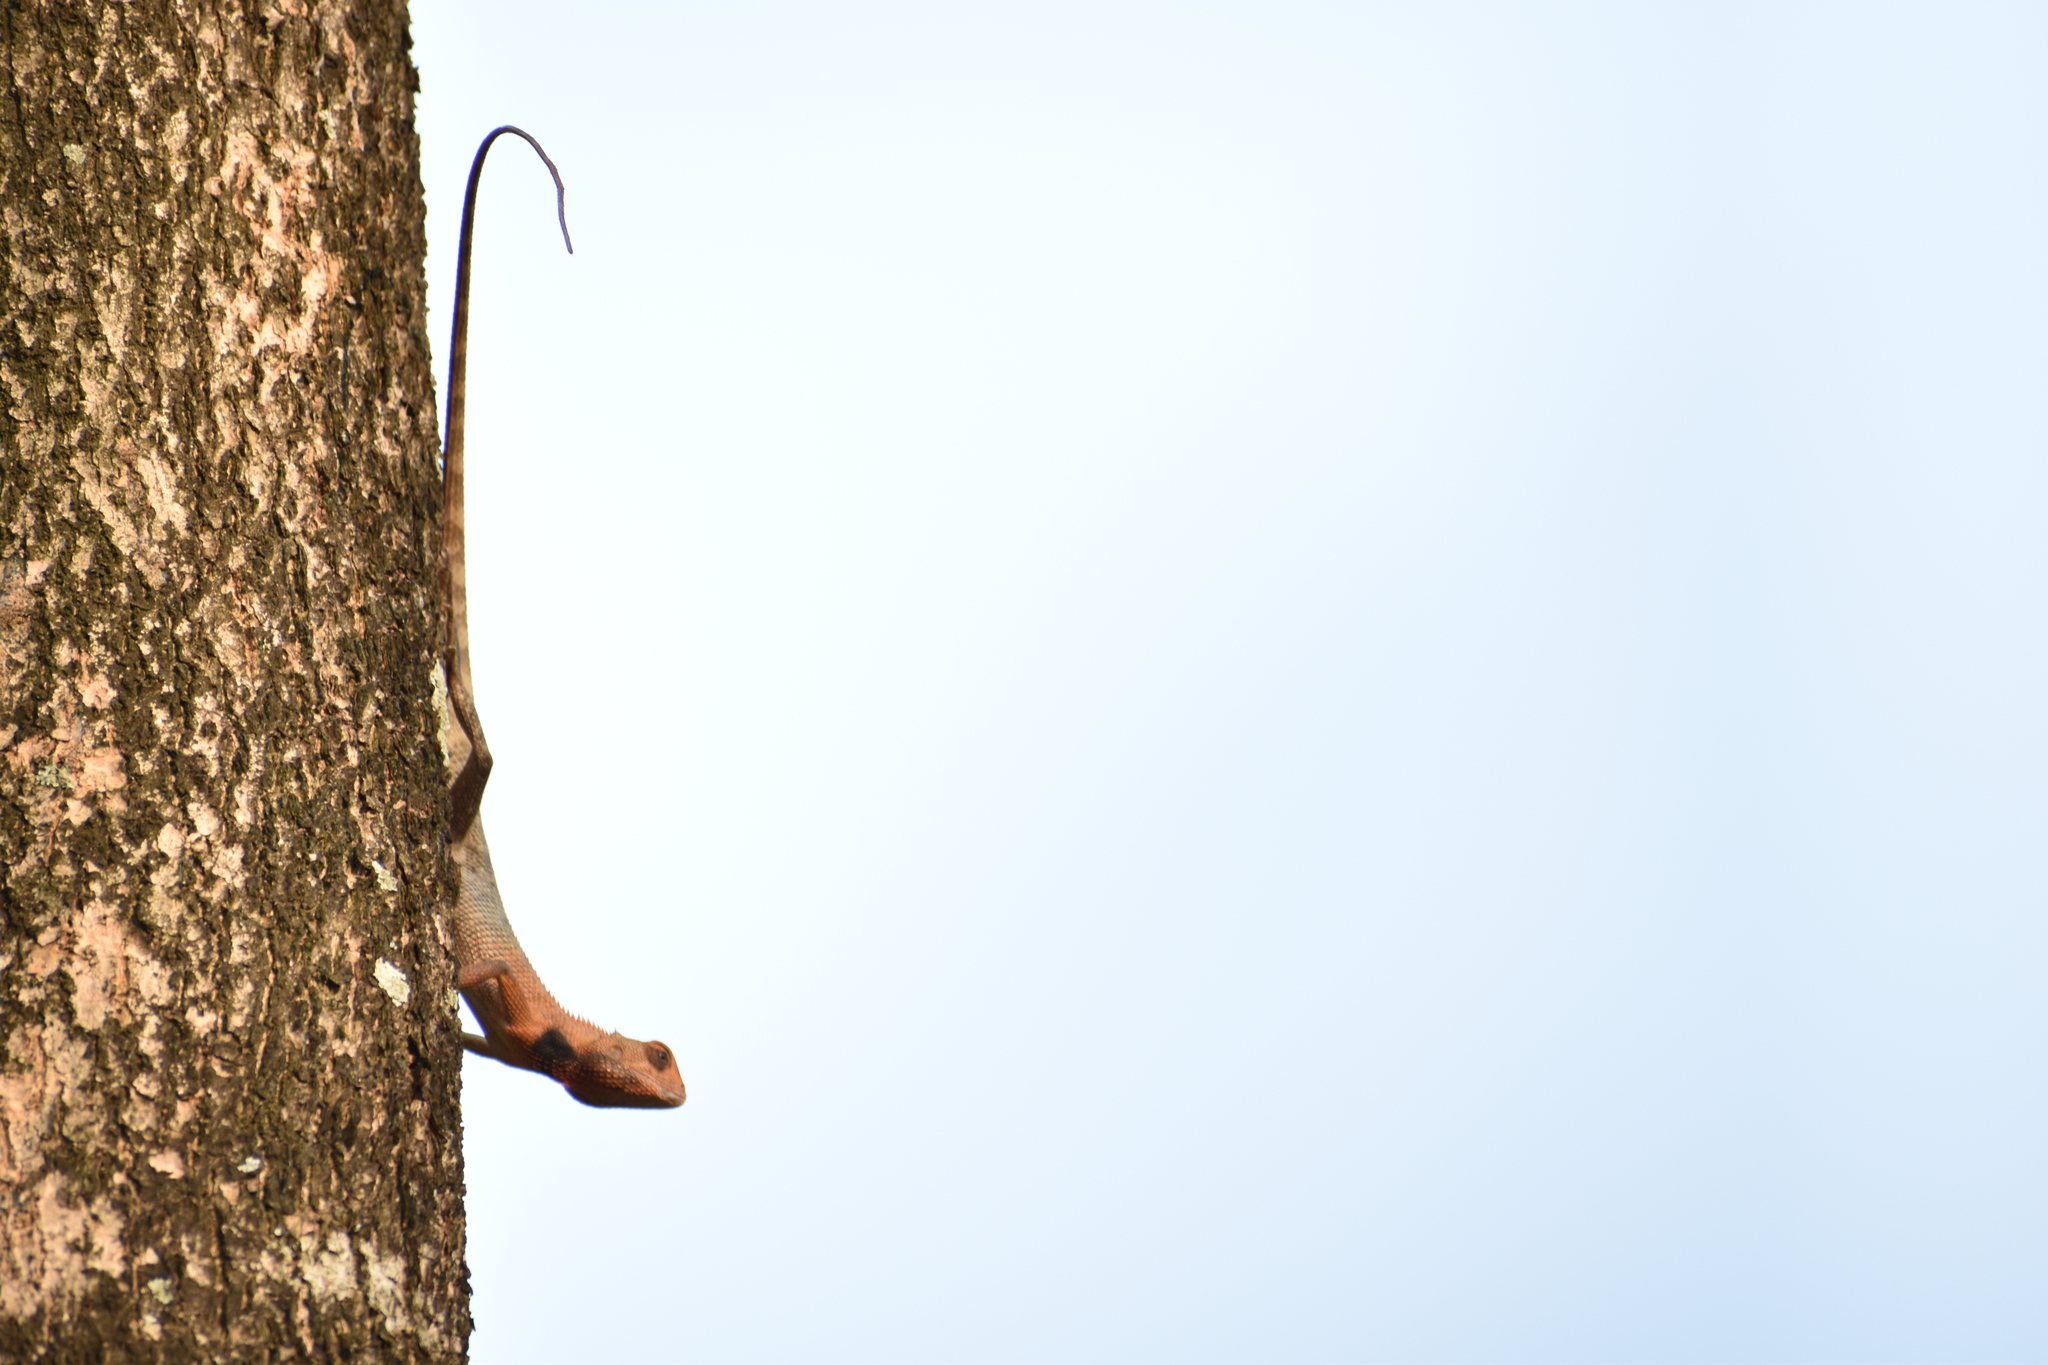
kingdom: Animalia
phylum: Chordata
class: Squamata
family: Agamidae
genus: Calotes
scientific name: Calotes versicolor
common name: Oriental garden lizard
